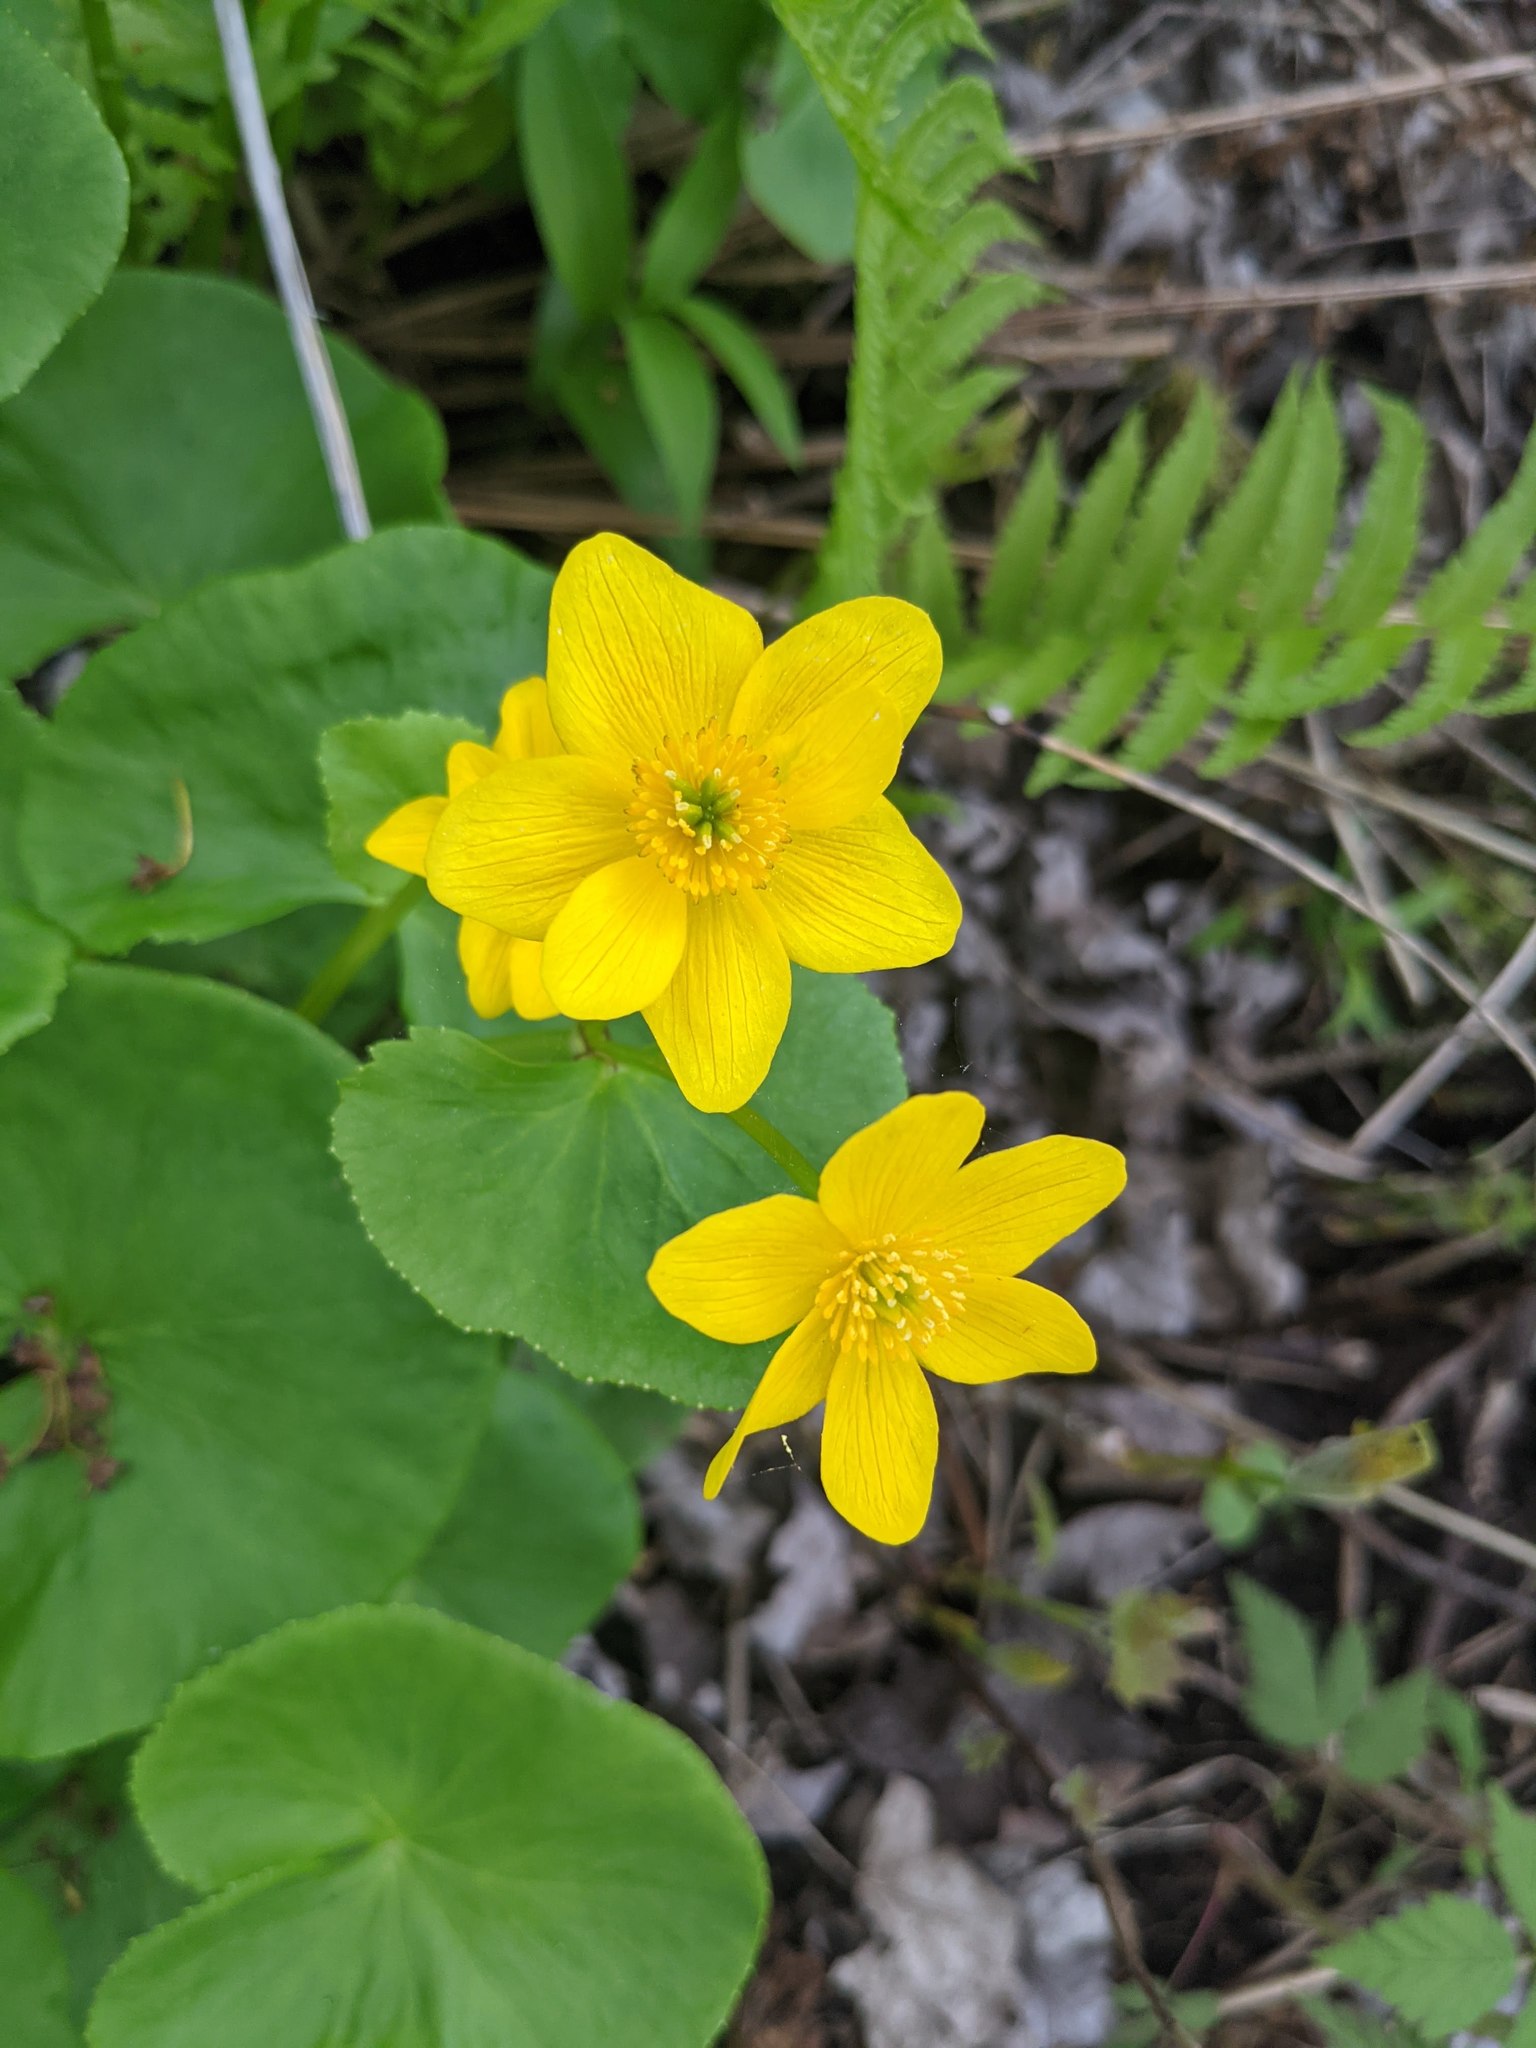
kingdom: Plantae
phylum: Tracheophyta
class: Magnoliopsida
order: Ranunculales
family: Ranunculaceae
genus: Caltha
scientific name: Caltha palustris
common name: Marsh marigold
